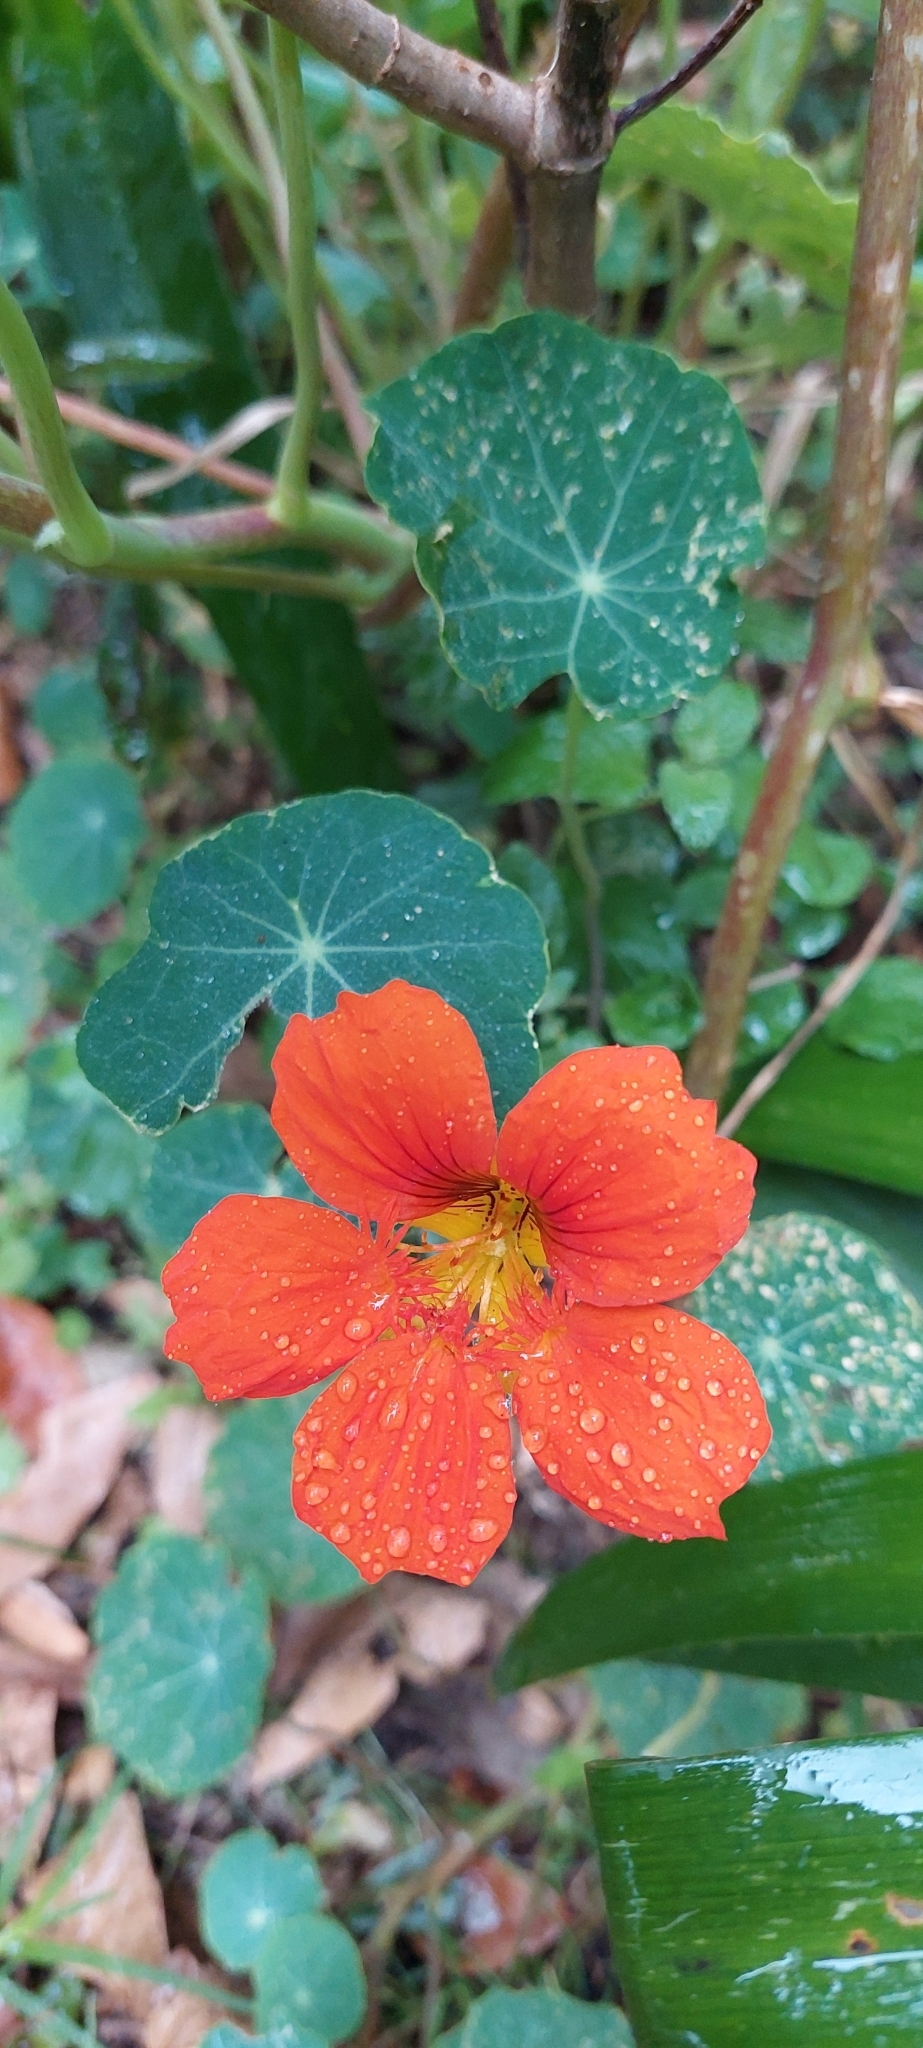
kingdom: Plantae
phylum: Tracheophyta
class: Magnoliopsida
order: Brassicales
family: Tropaeolaceae
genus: Tropaeolum
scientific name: Tropaeolum majus
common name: Nasturtium
